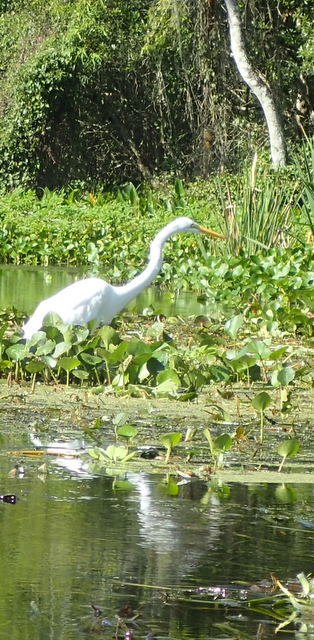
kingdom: Animalia
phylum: Chordata
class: Aves
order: Pelecaniformes
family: Ardeidae
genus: Ardea
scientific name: Ardea alba
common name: Great egret
